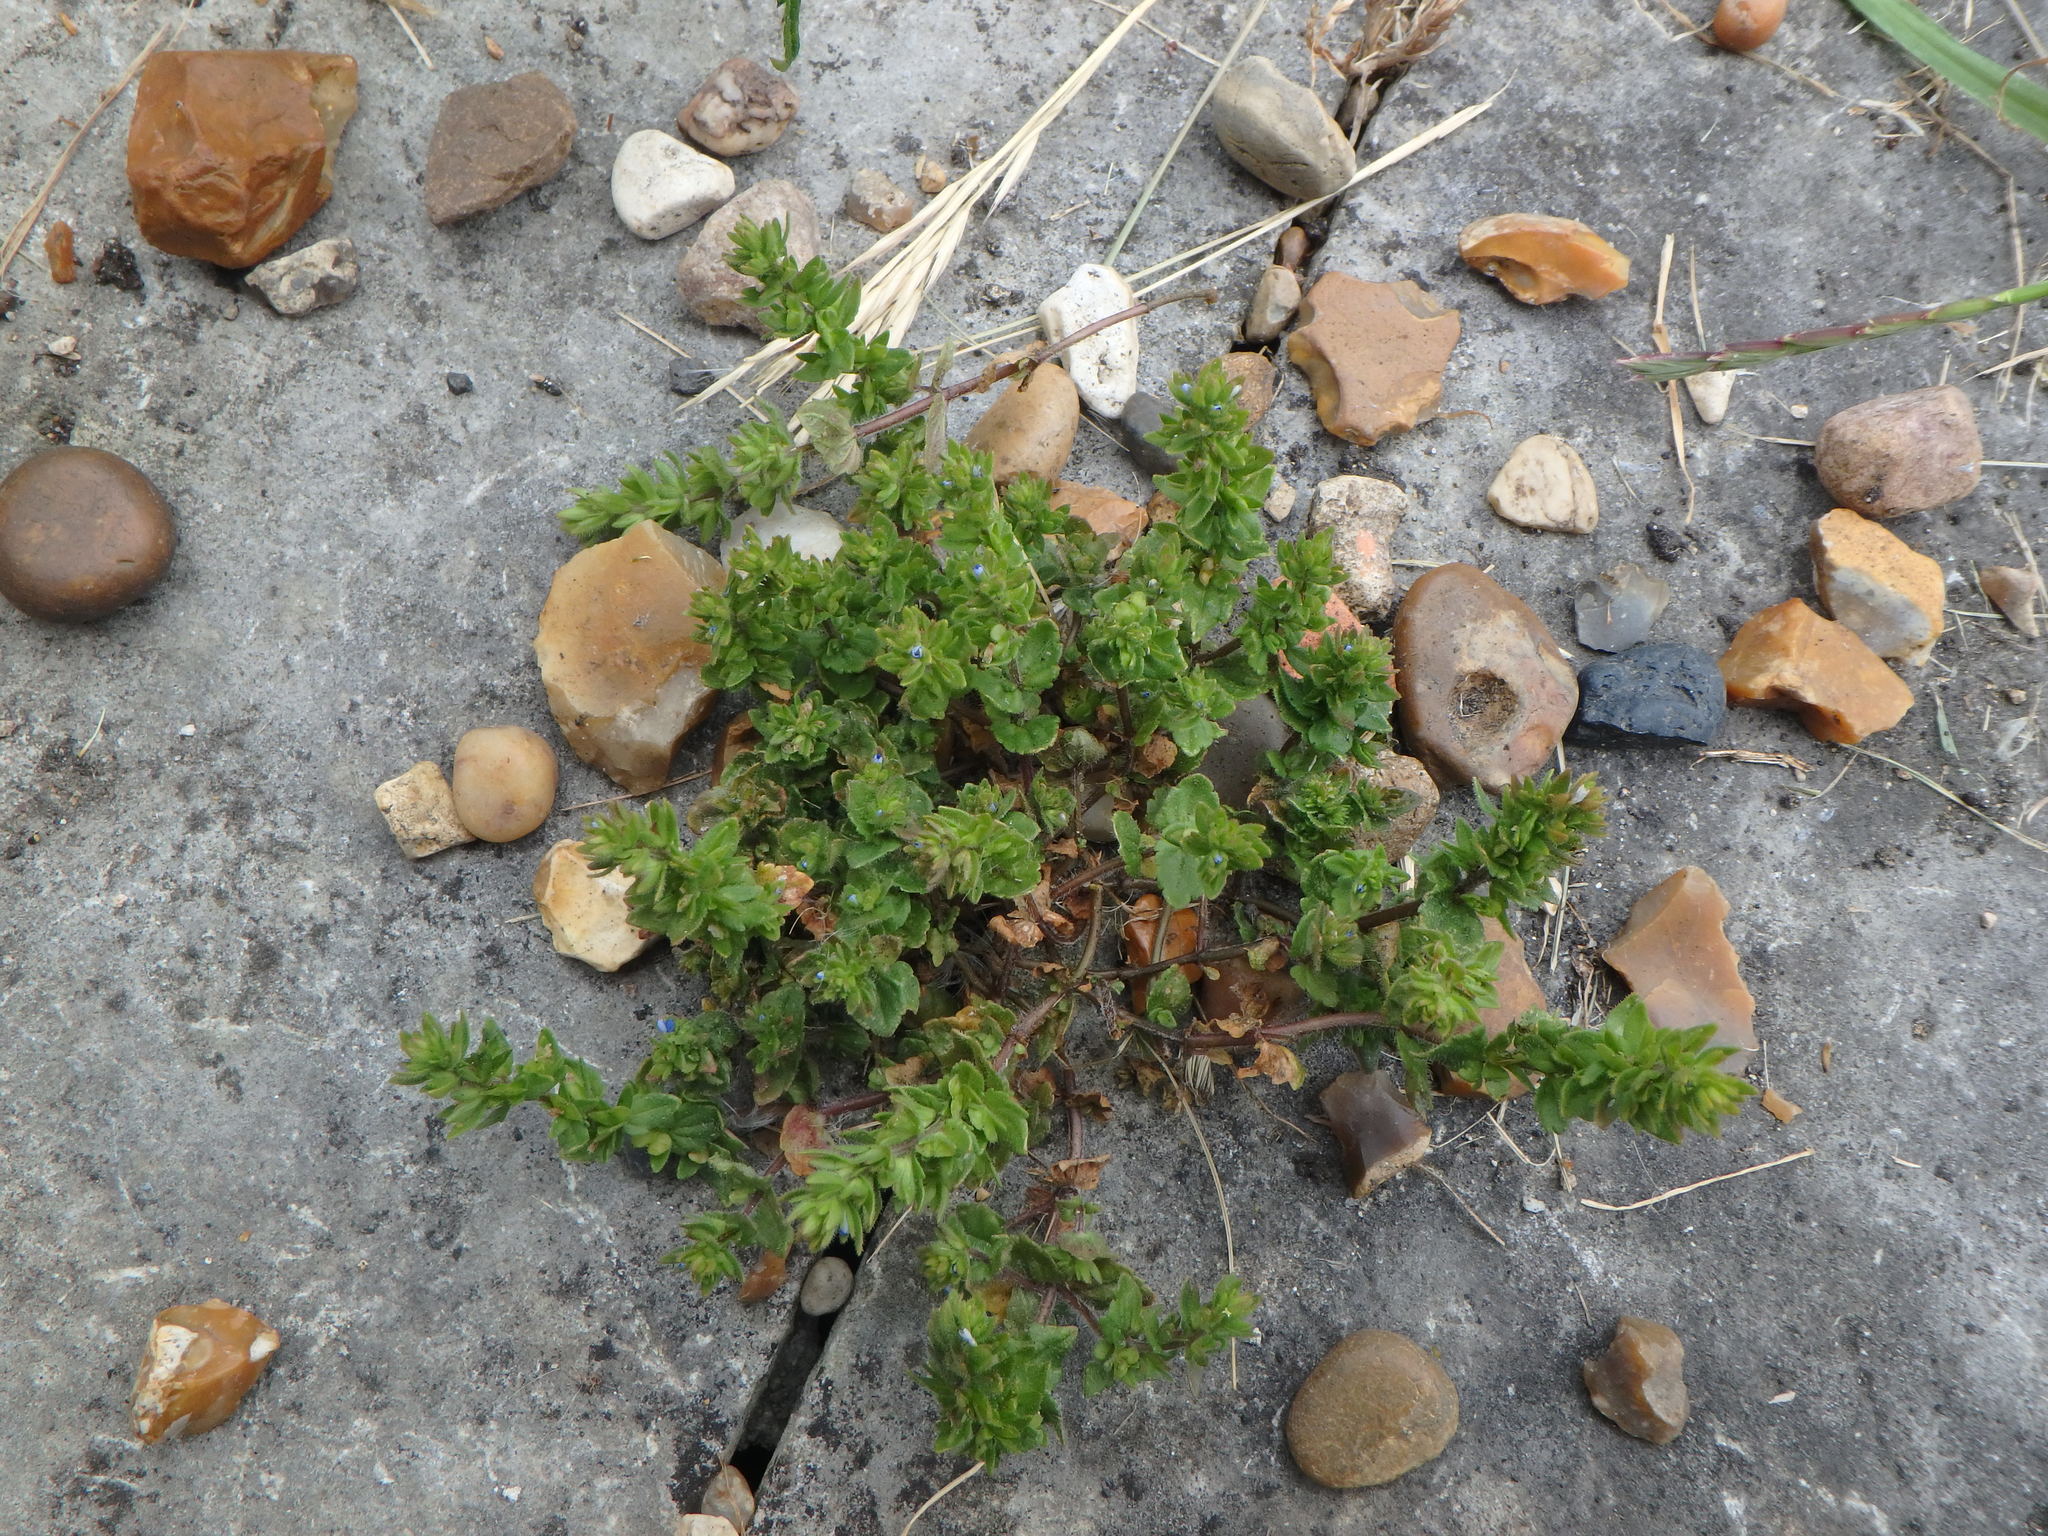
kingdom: Plantae
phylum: Tracheophyta
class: Magnoliopsida
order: Lamiales
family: Plantaginaceae
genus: Veronica
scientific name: Veronica arvensis
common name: Corn speedwell
